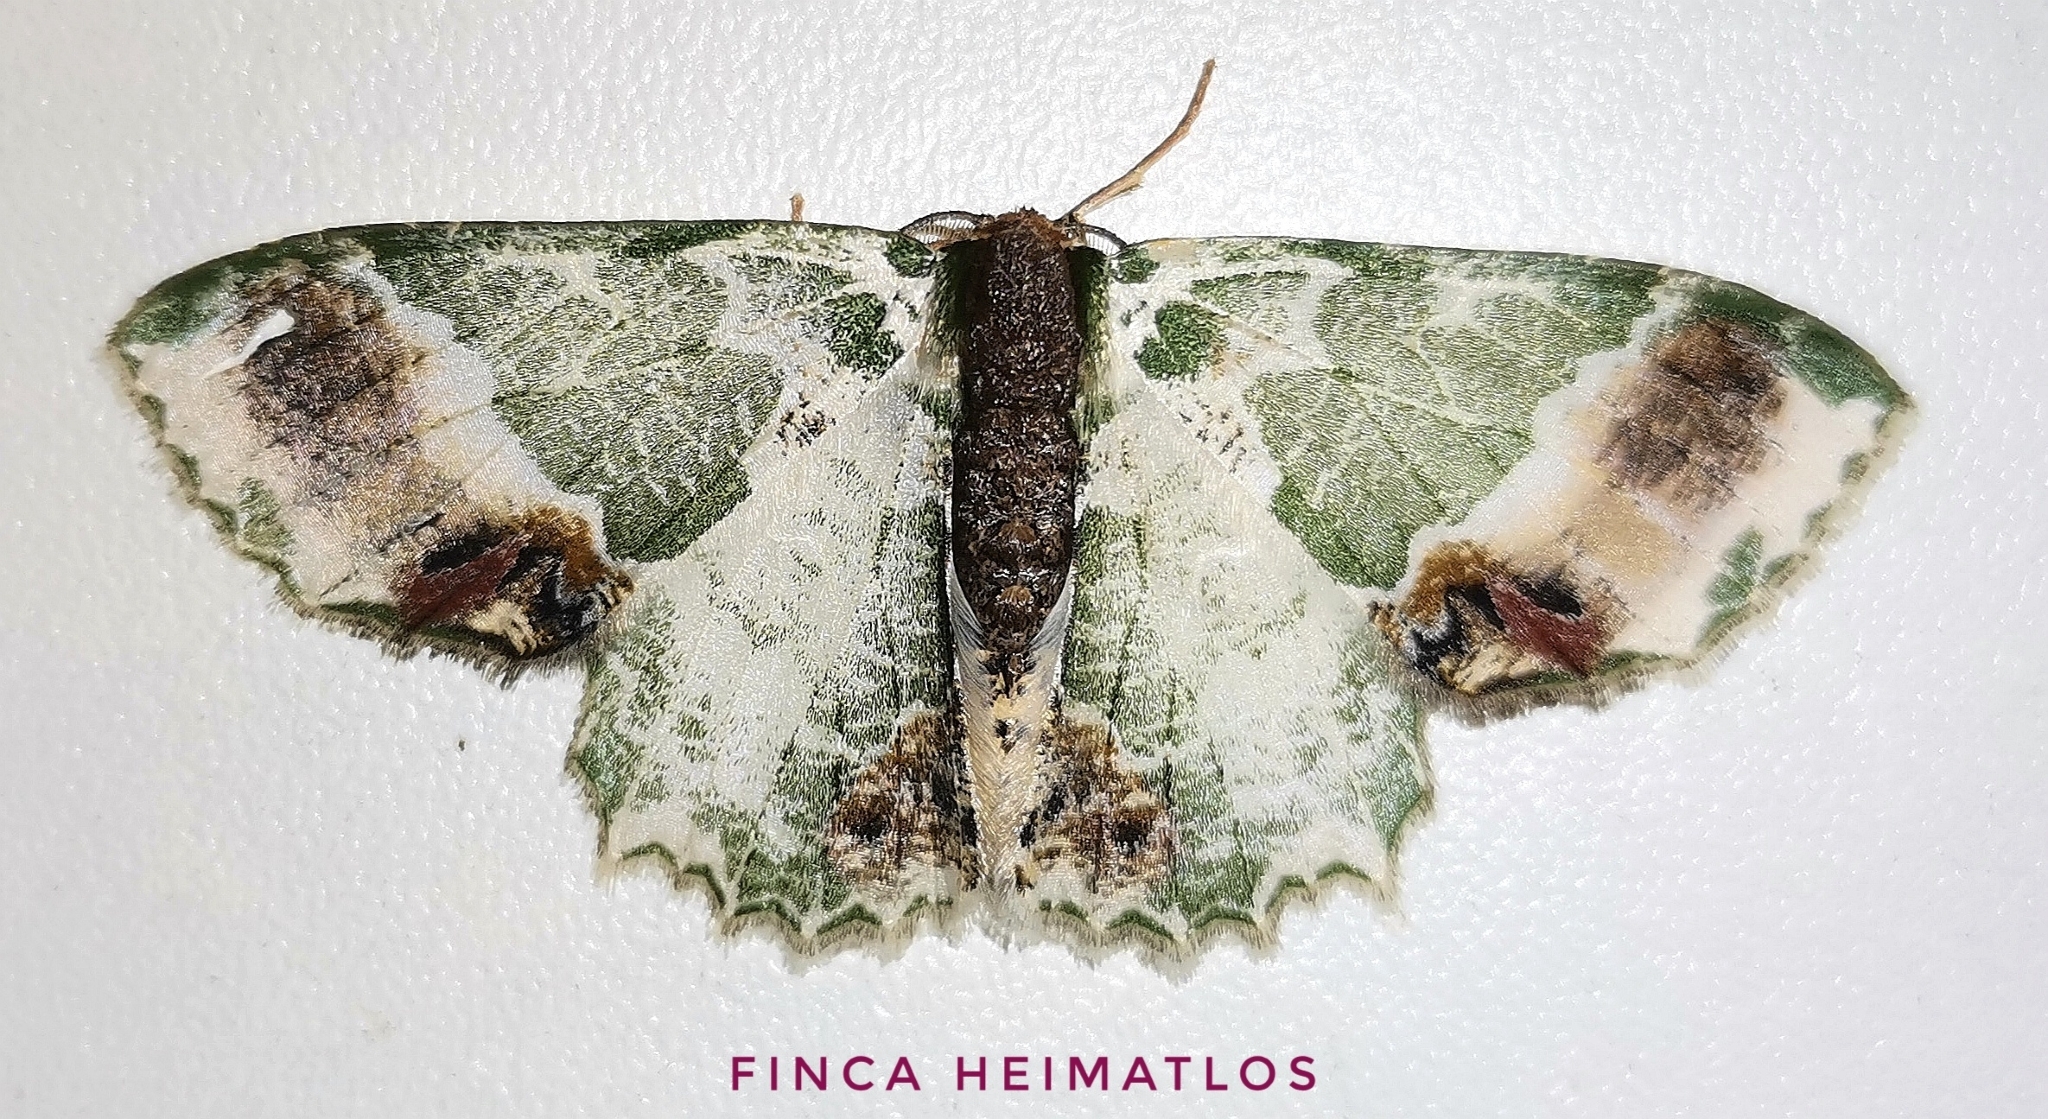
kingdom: Animalia
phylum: Arthropoda
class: Insecta
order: Lepidoptera
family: Geometridae
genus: Lophochorista
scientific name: Lophochorista ockendeni
